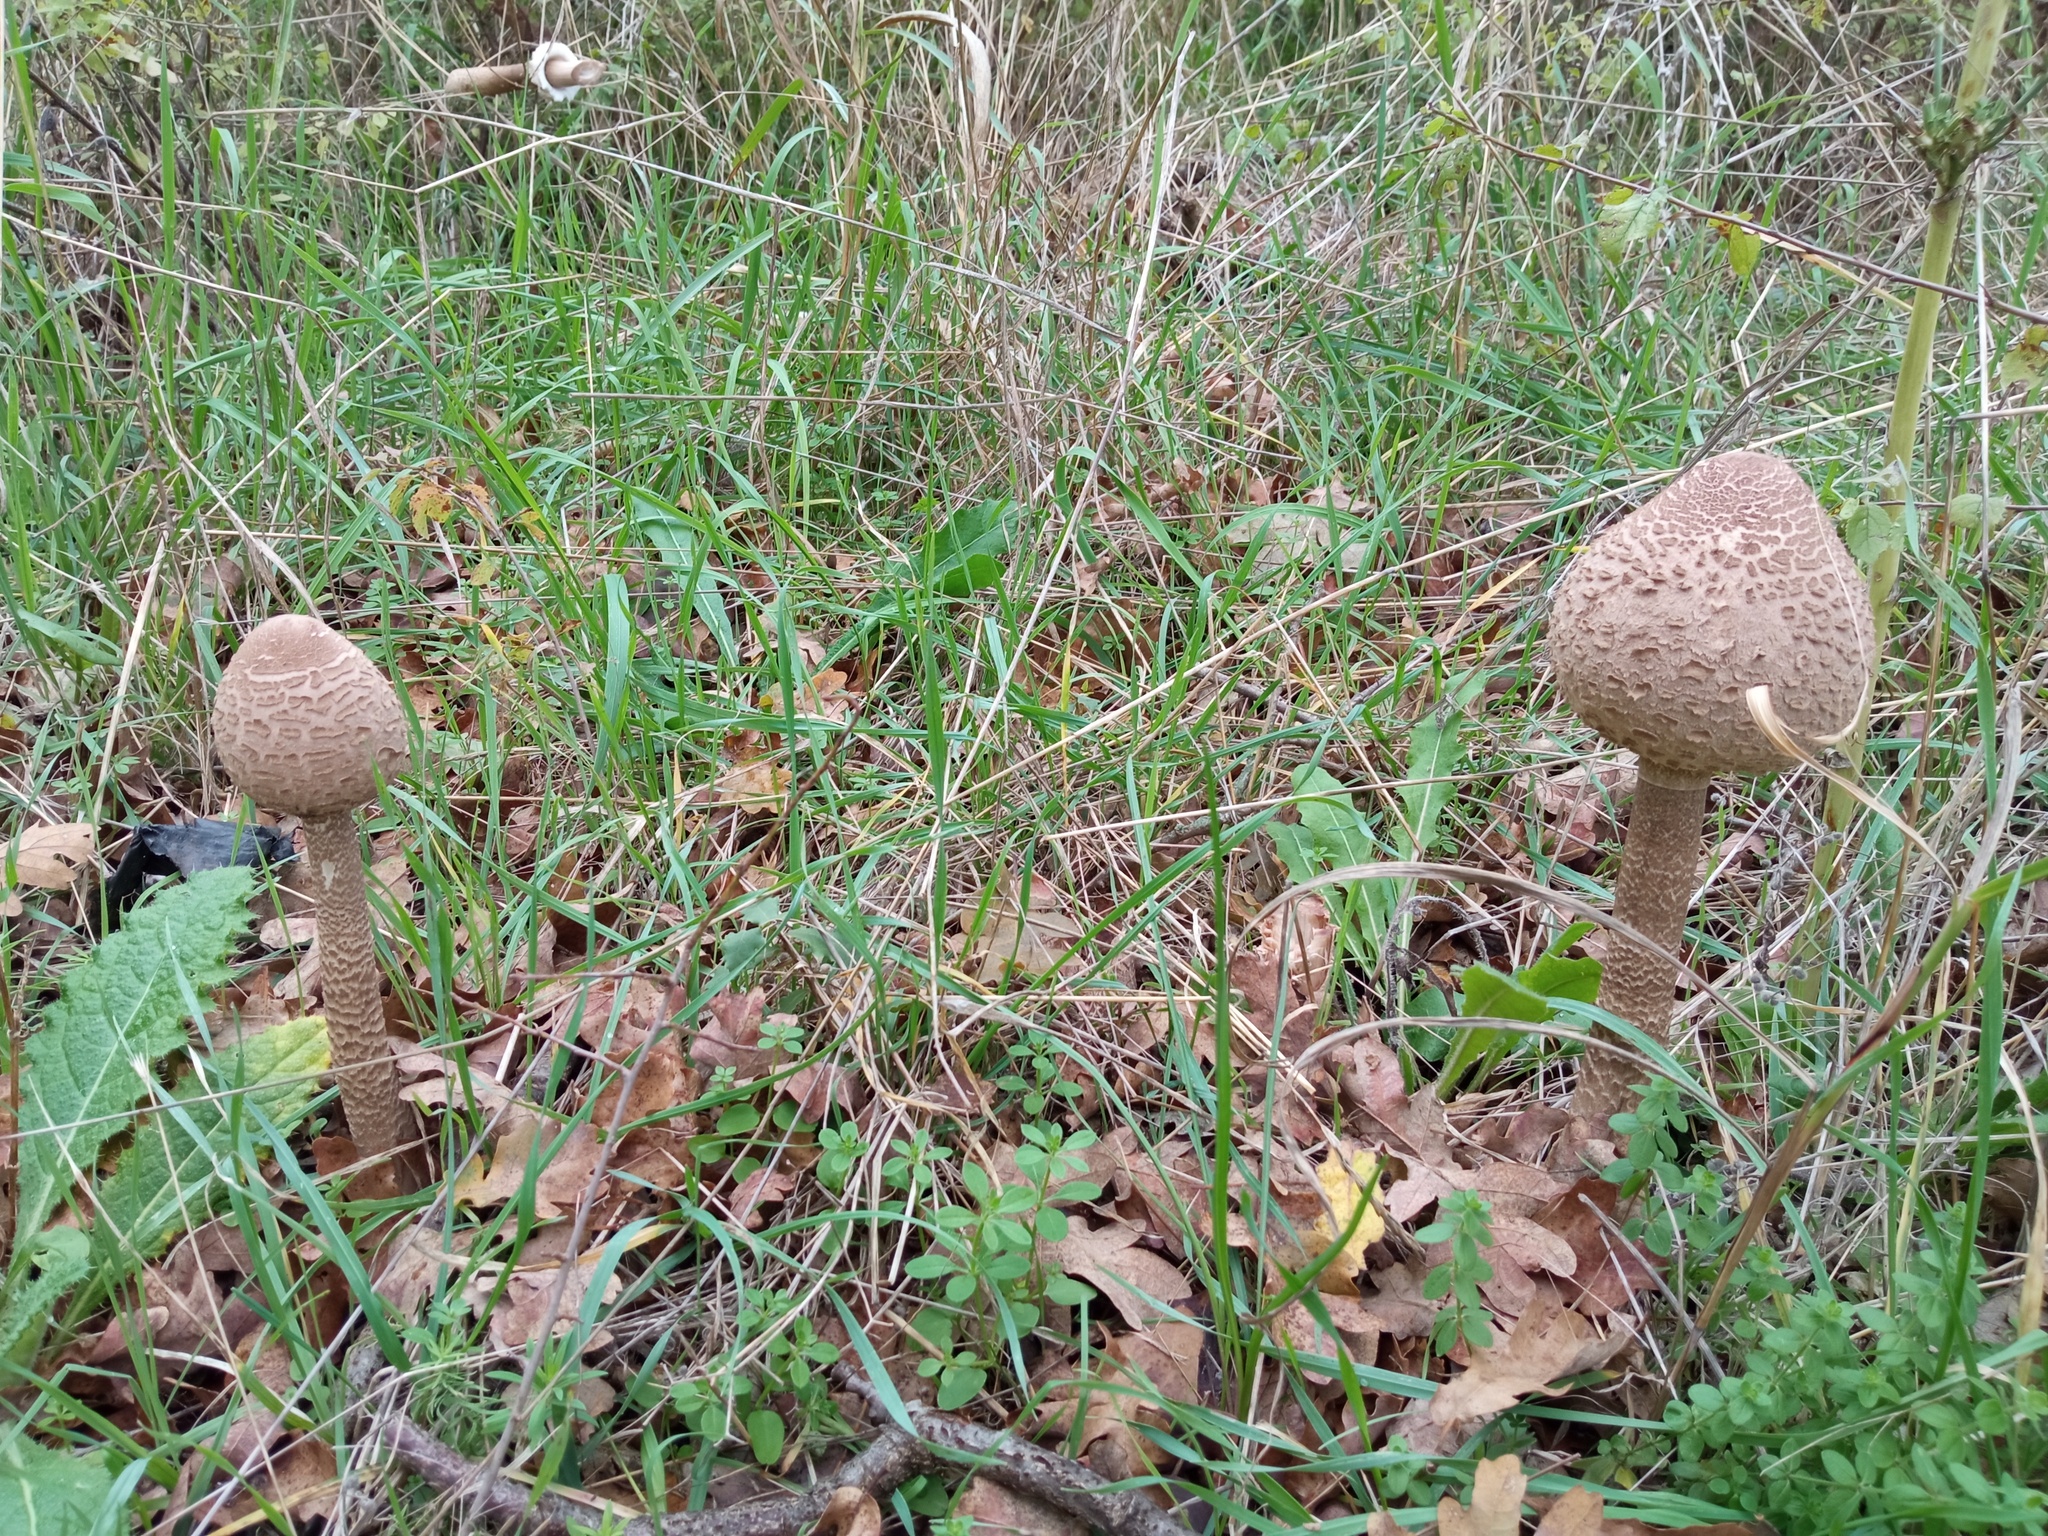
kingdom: Fungi
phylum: Basidiomycota
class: Agaricomycetes
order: Agaricales
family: Agaricaceae
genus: Macrolepiota
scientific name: Macrolepiota procera
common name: Parasol
